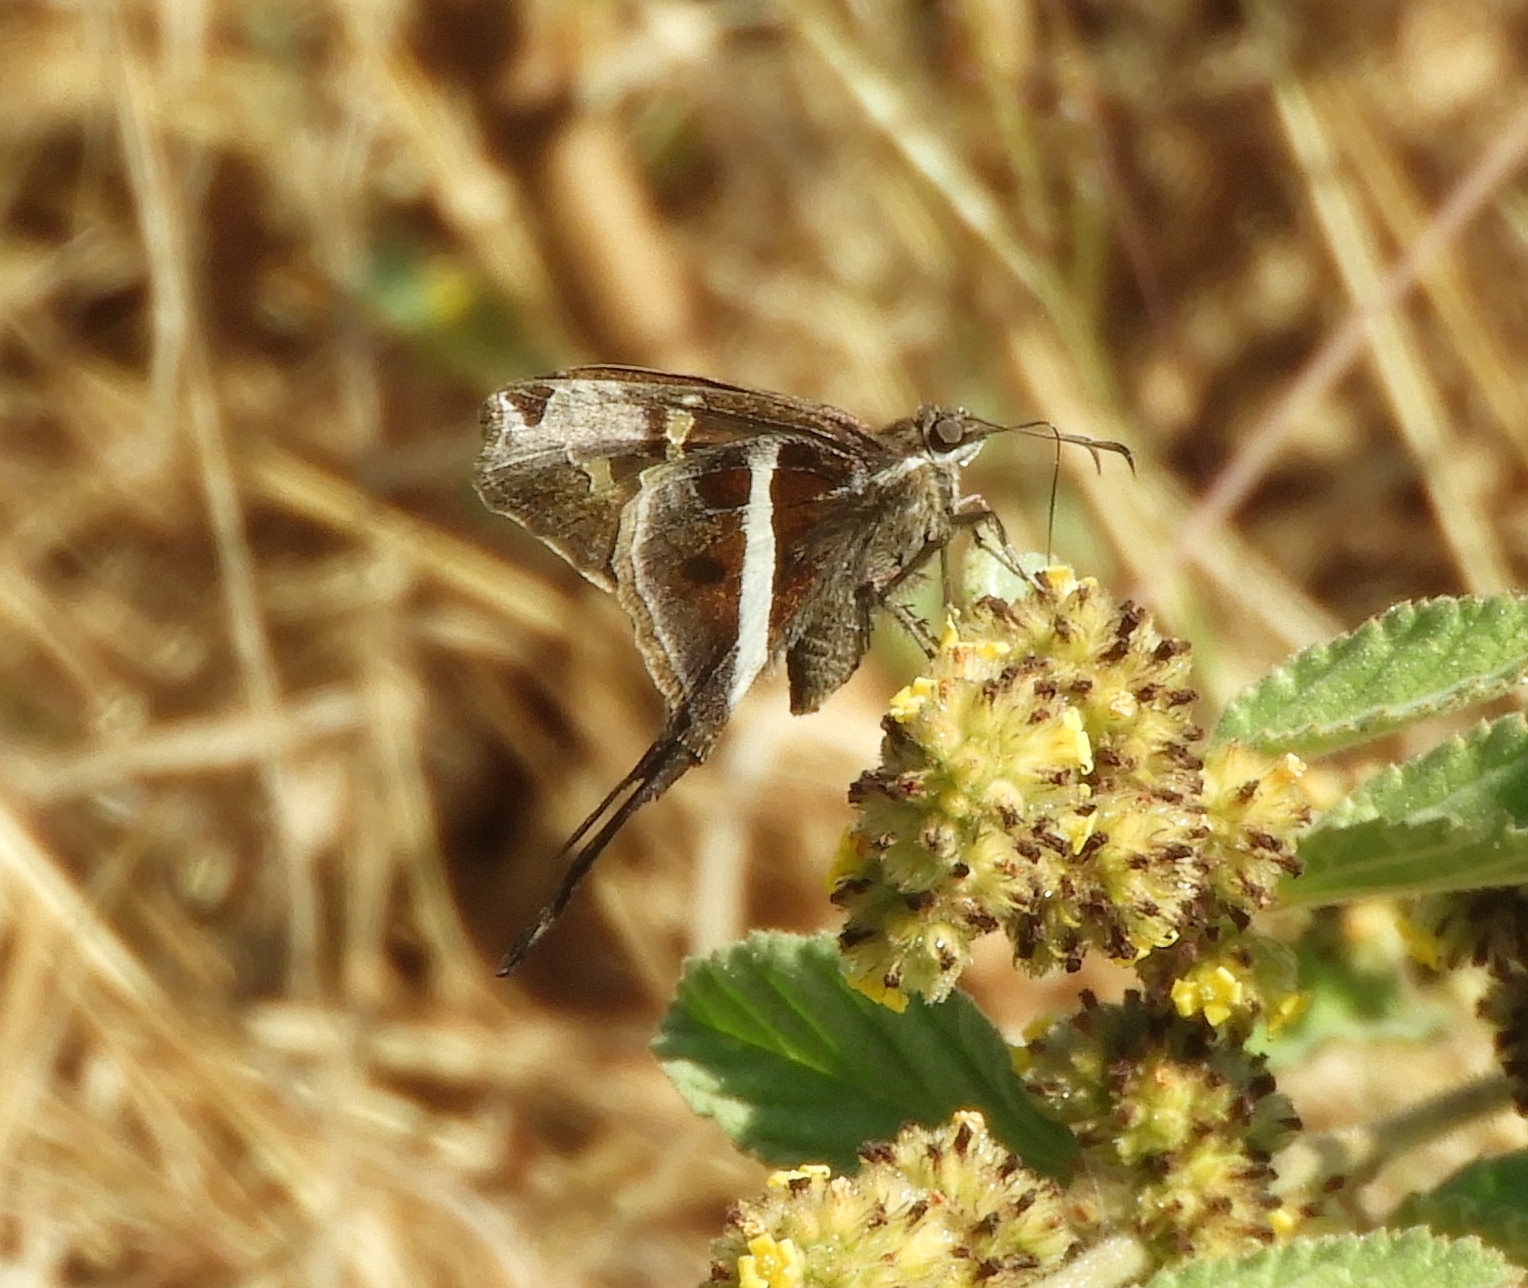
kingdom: Animalia
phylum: Arthropoda
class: Insecta
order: Lepidoptera
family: Hesperiidae
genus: Chioides
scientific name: Chioides catillus
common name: Silverbanded skipper
